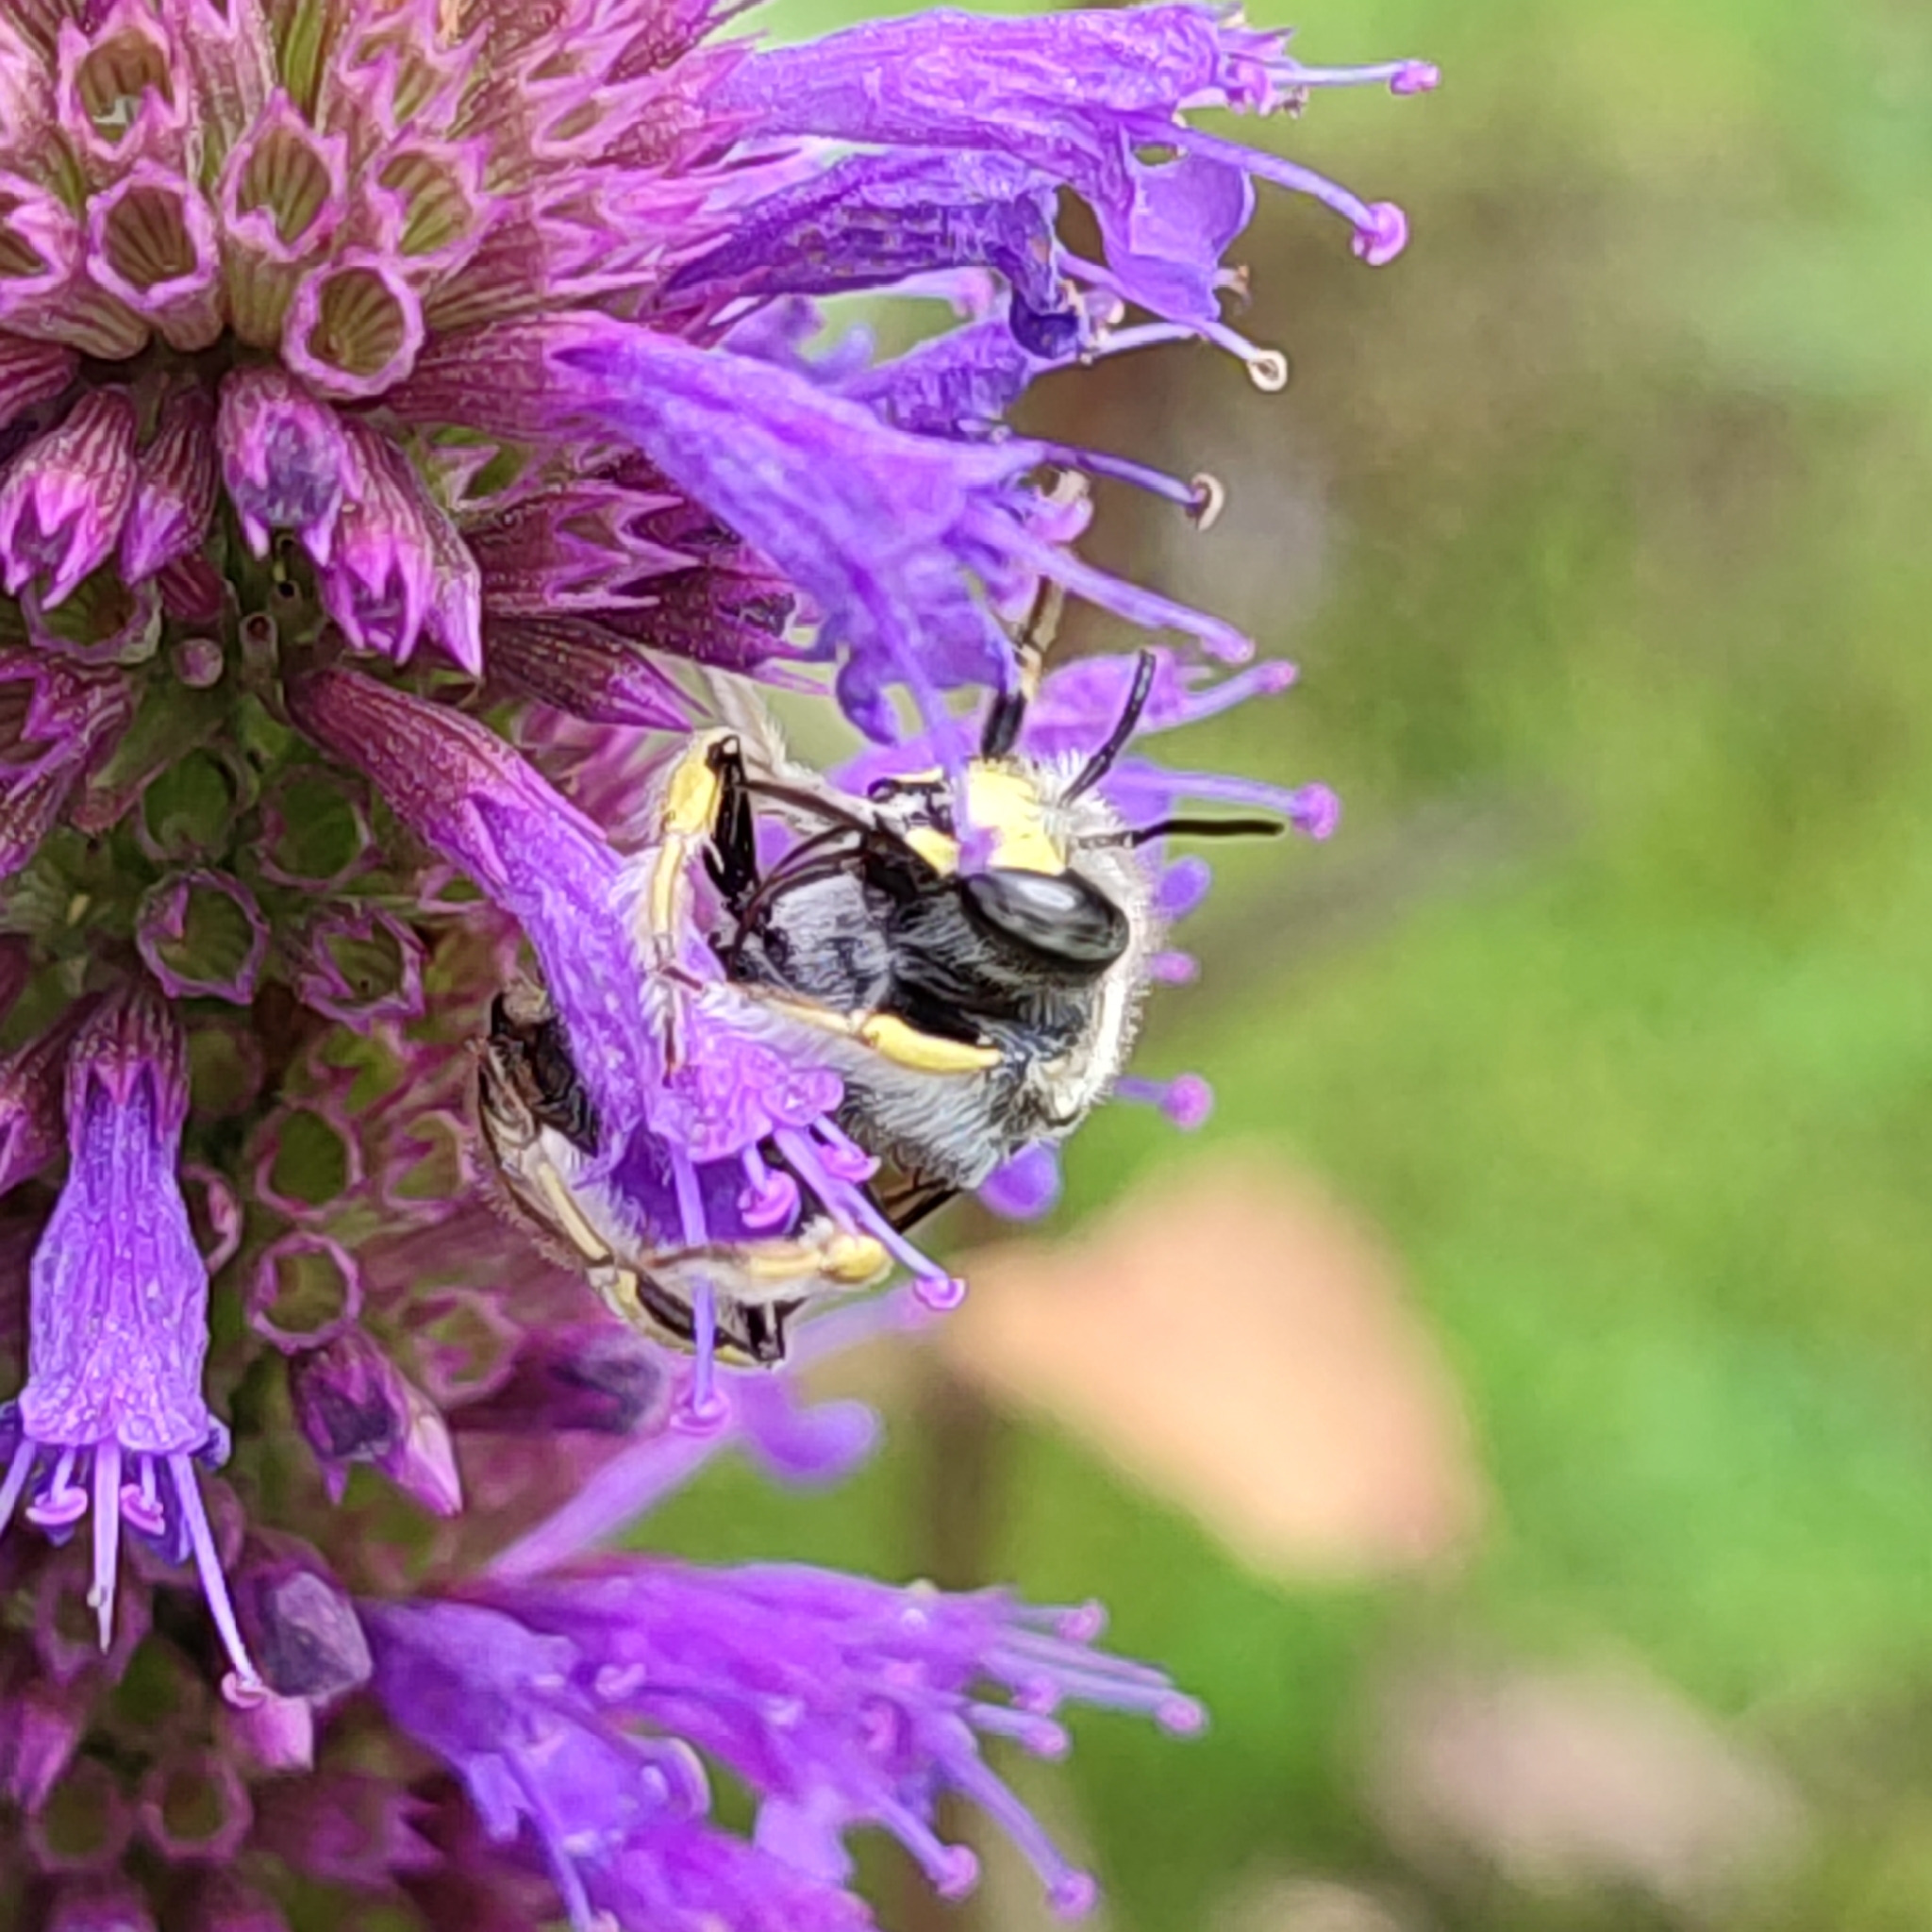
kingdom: Animalia
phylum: Arthropoda
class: Insecta
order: Hymenoptera
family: Megachilidae
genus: Anthidium
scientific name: Anthidium manicatum
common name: Wool carder bee
